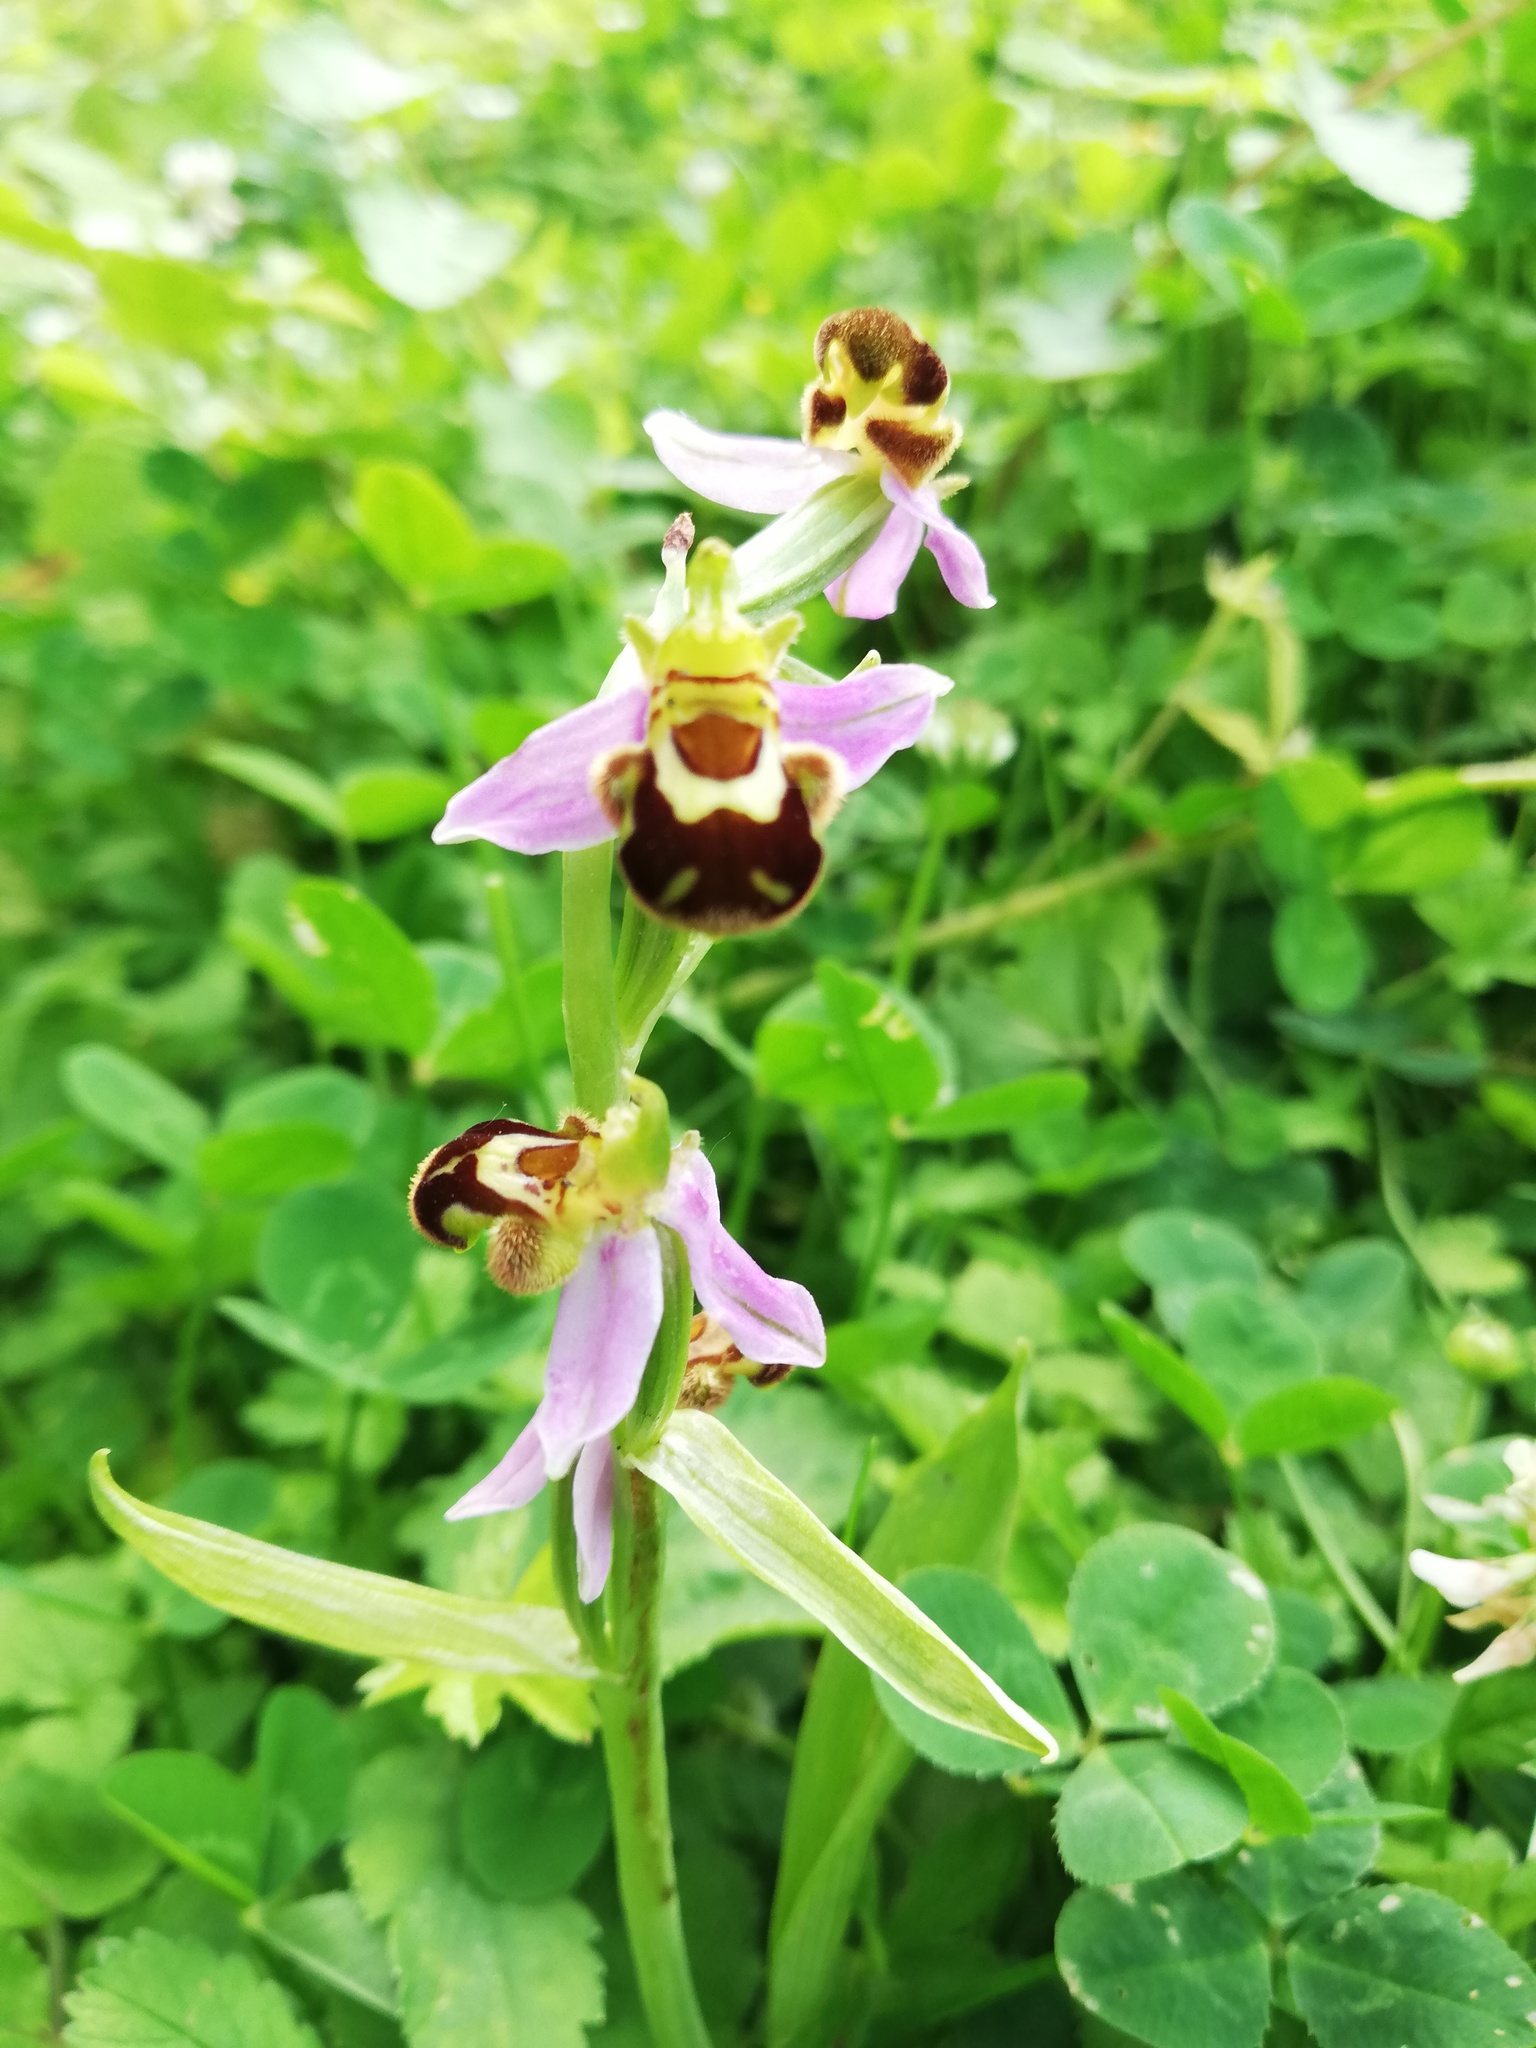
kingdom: Plantae
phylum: Tracheophyta
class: Liliopsida
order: Asparagales
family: Orchidaceae
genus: Ophrys
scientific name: Ophrys apifera
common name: Bee orchid
